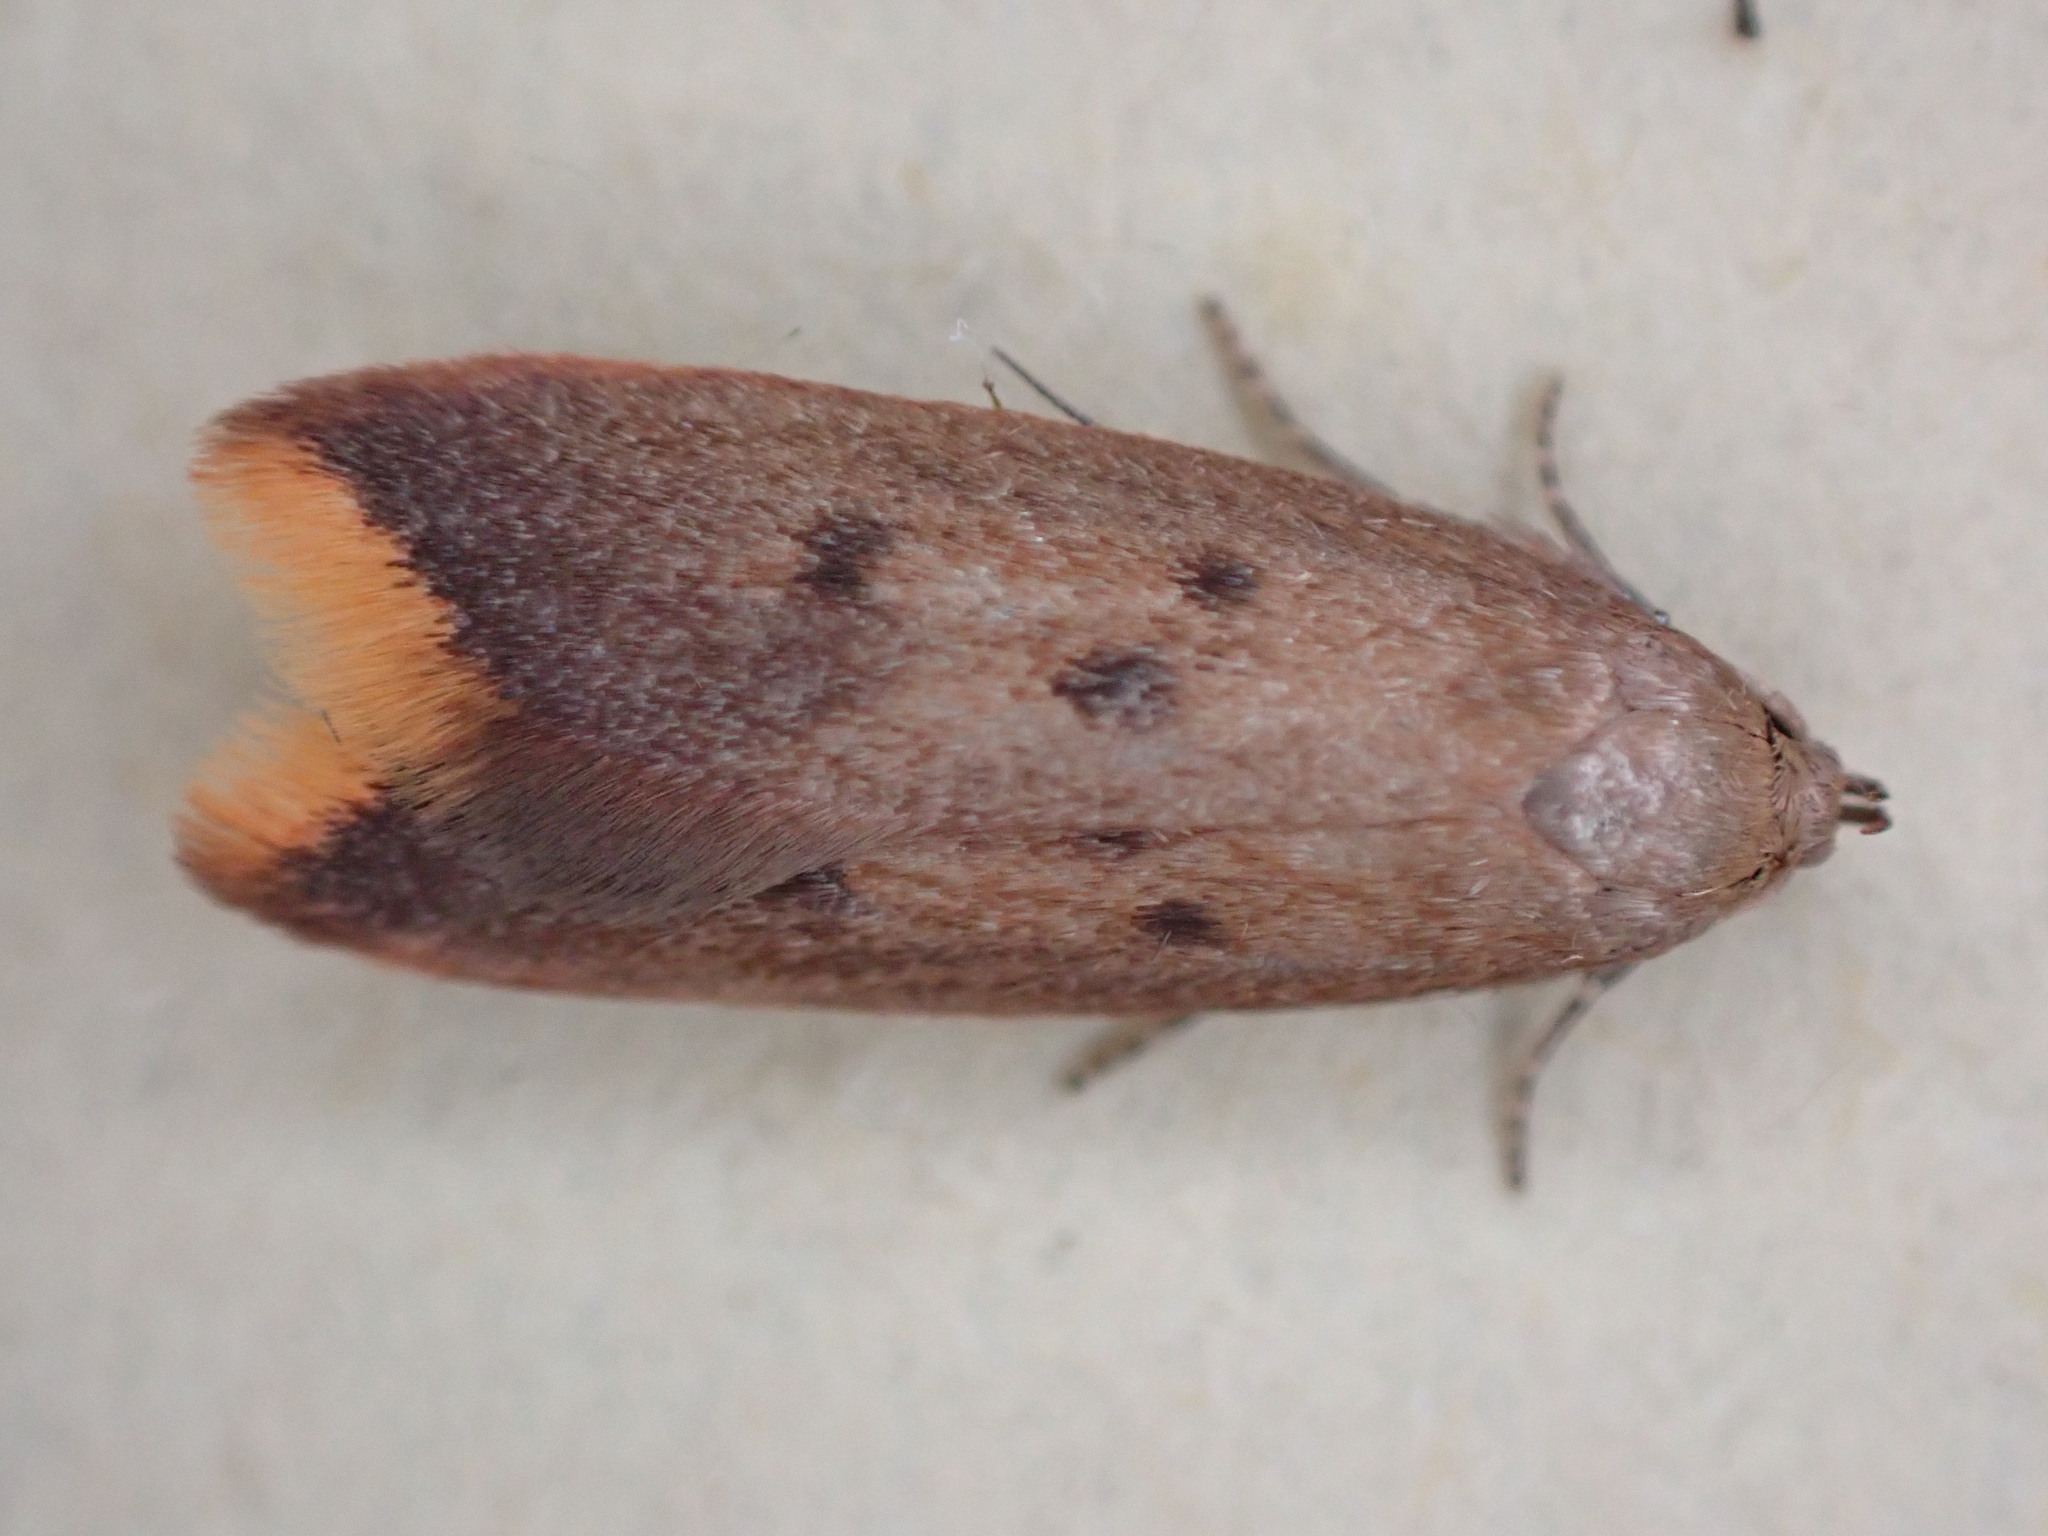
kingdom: Animalia
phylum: Arthropoda
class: Insecta
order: Lepidoptera
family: Oecophoridae
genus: Tachystola
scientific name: Tachystola acroxantha
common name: Ruddy streak
